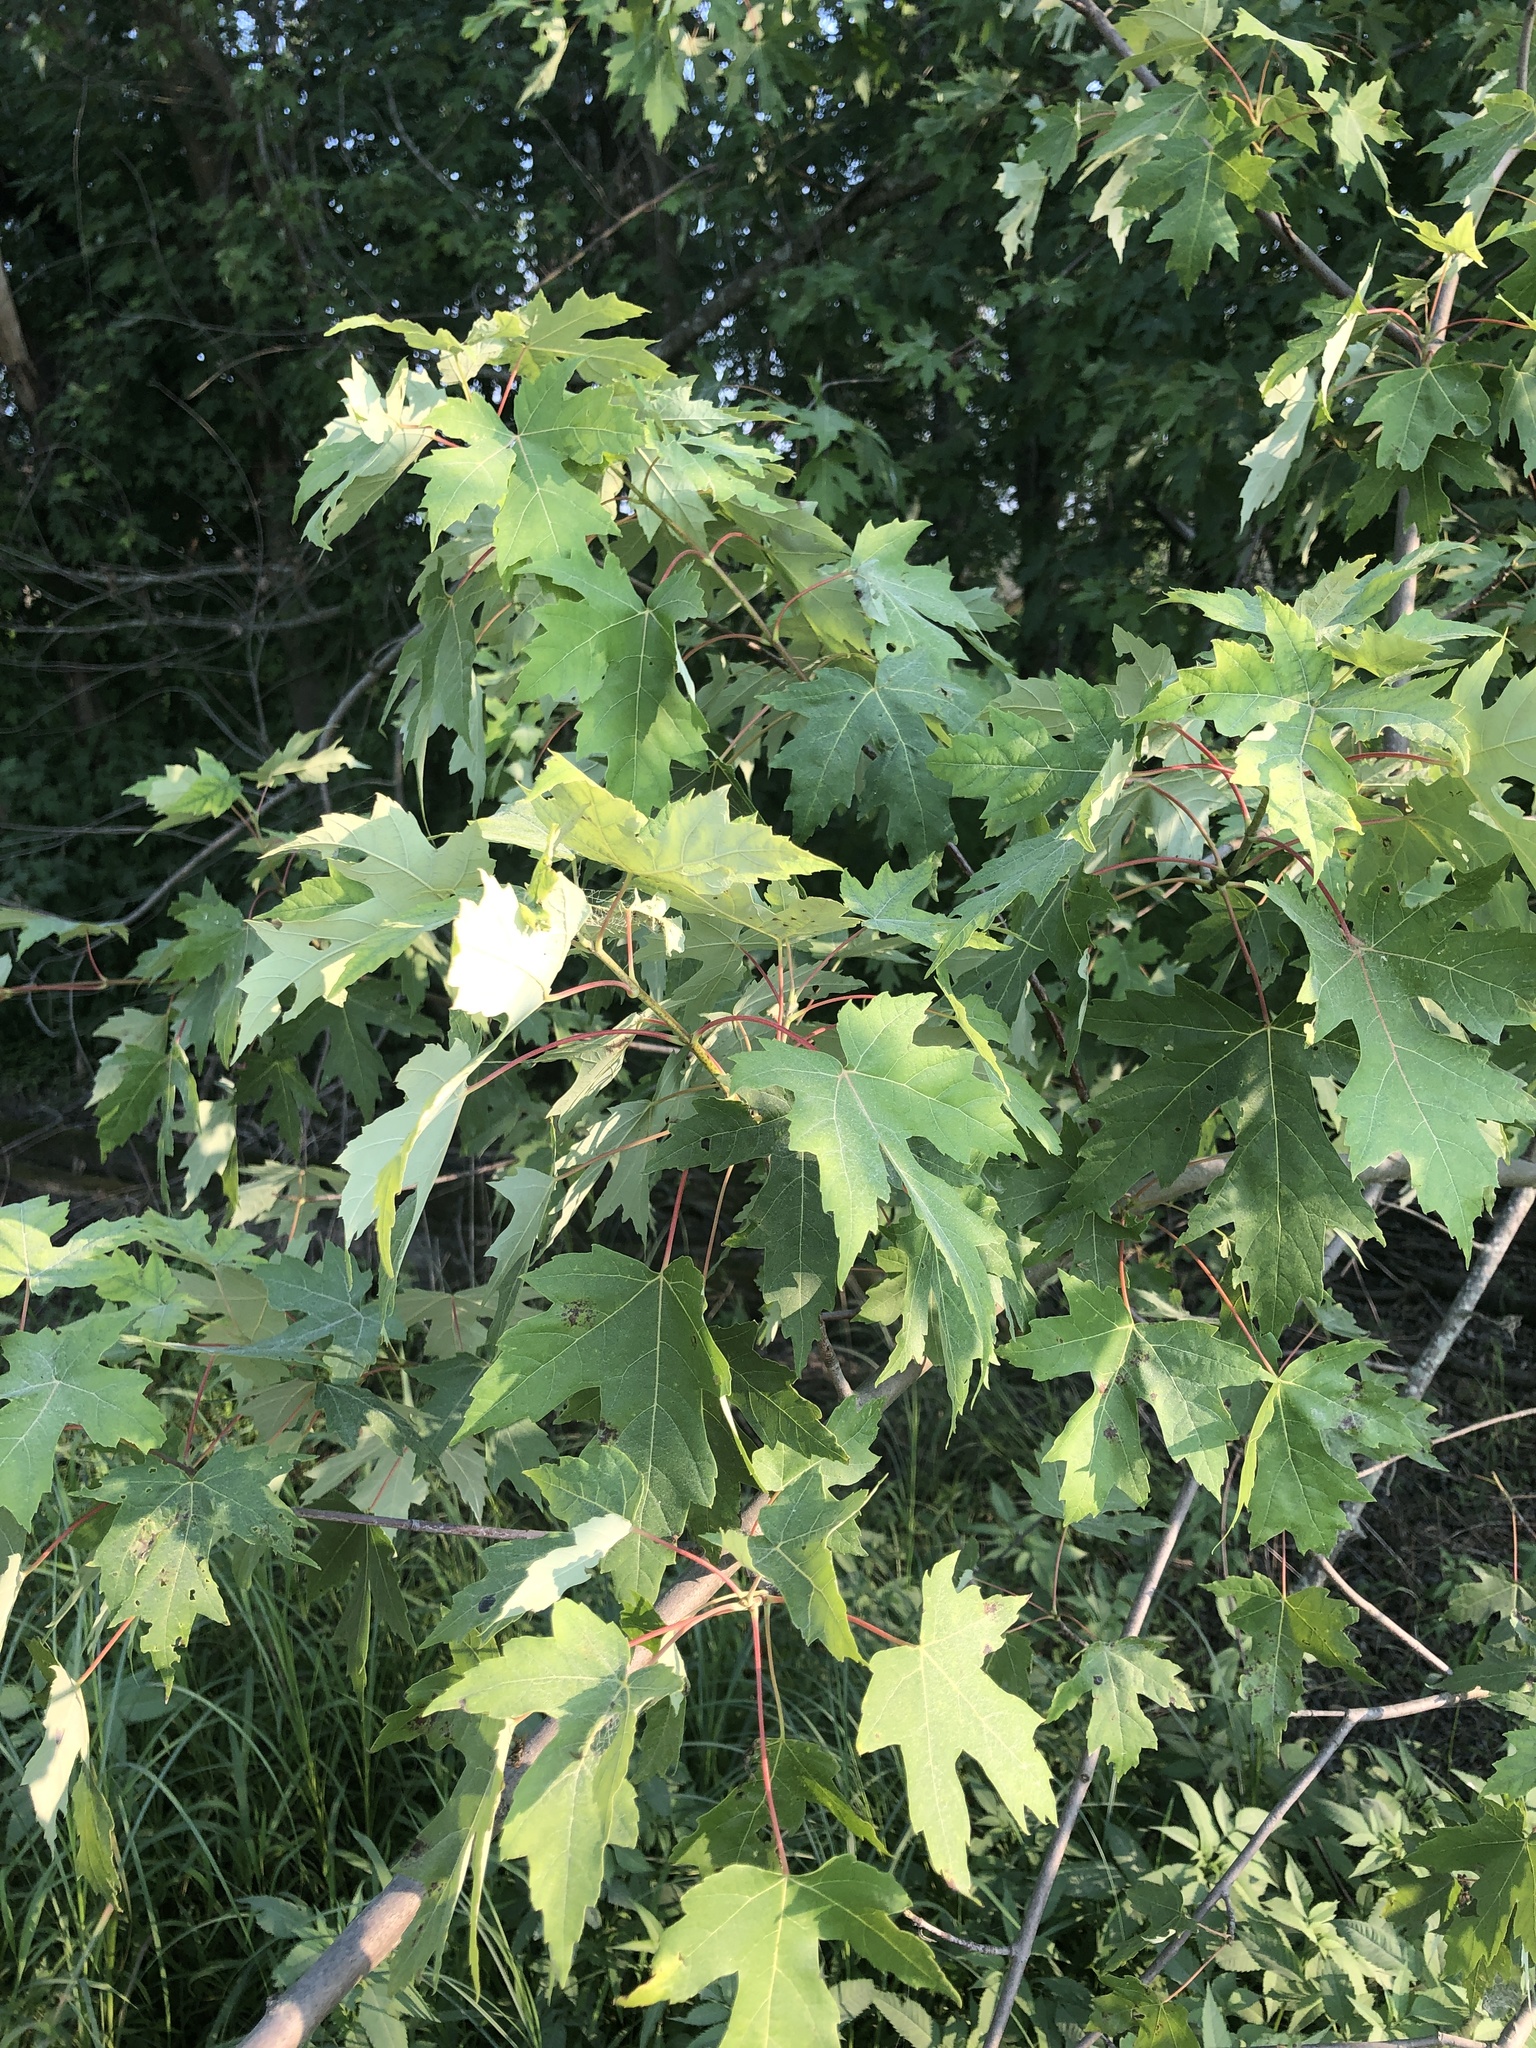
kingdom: Plantae
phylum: Tracheophyta
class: Magnoliopsida
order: Sapindales
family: Sapindaceae
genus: Acer
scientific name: Acer saccharinum
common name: Silver maple
